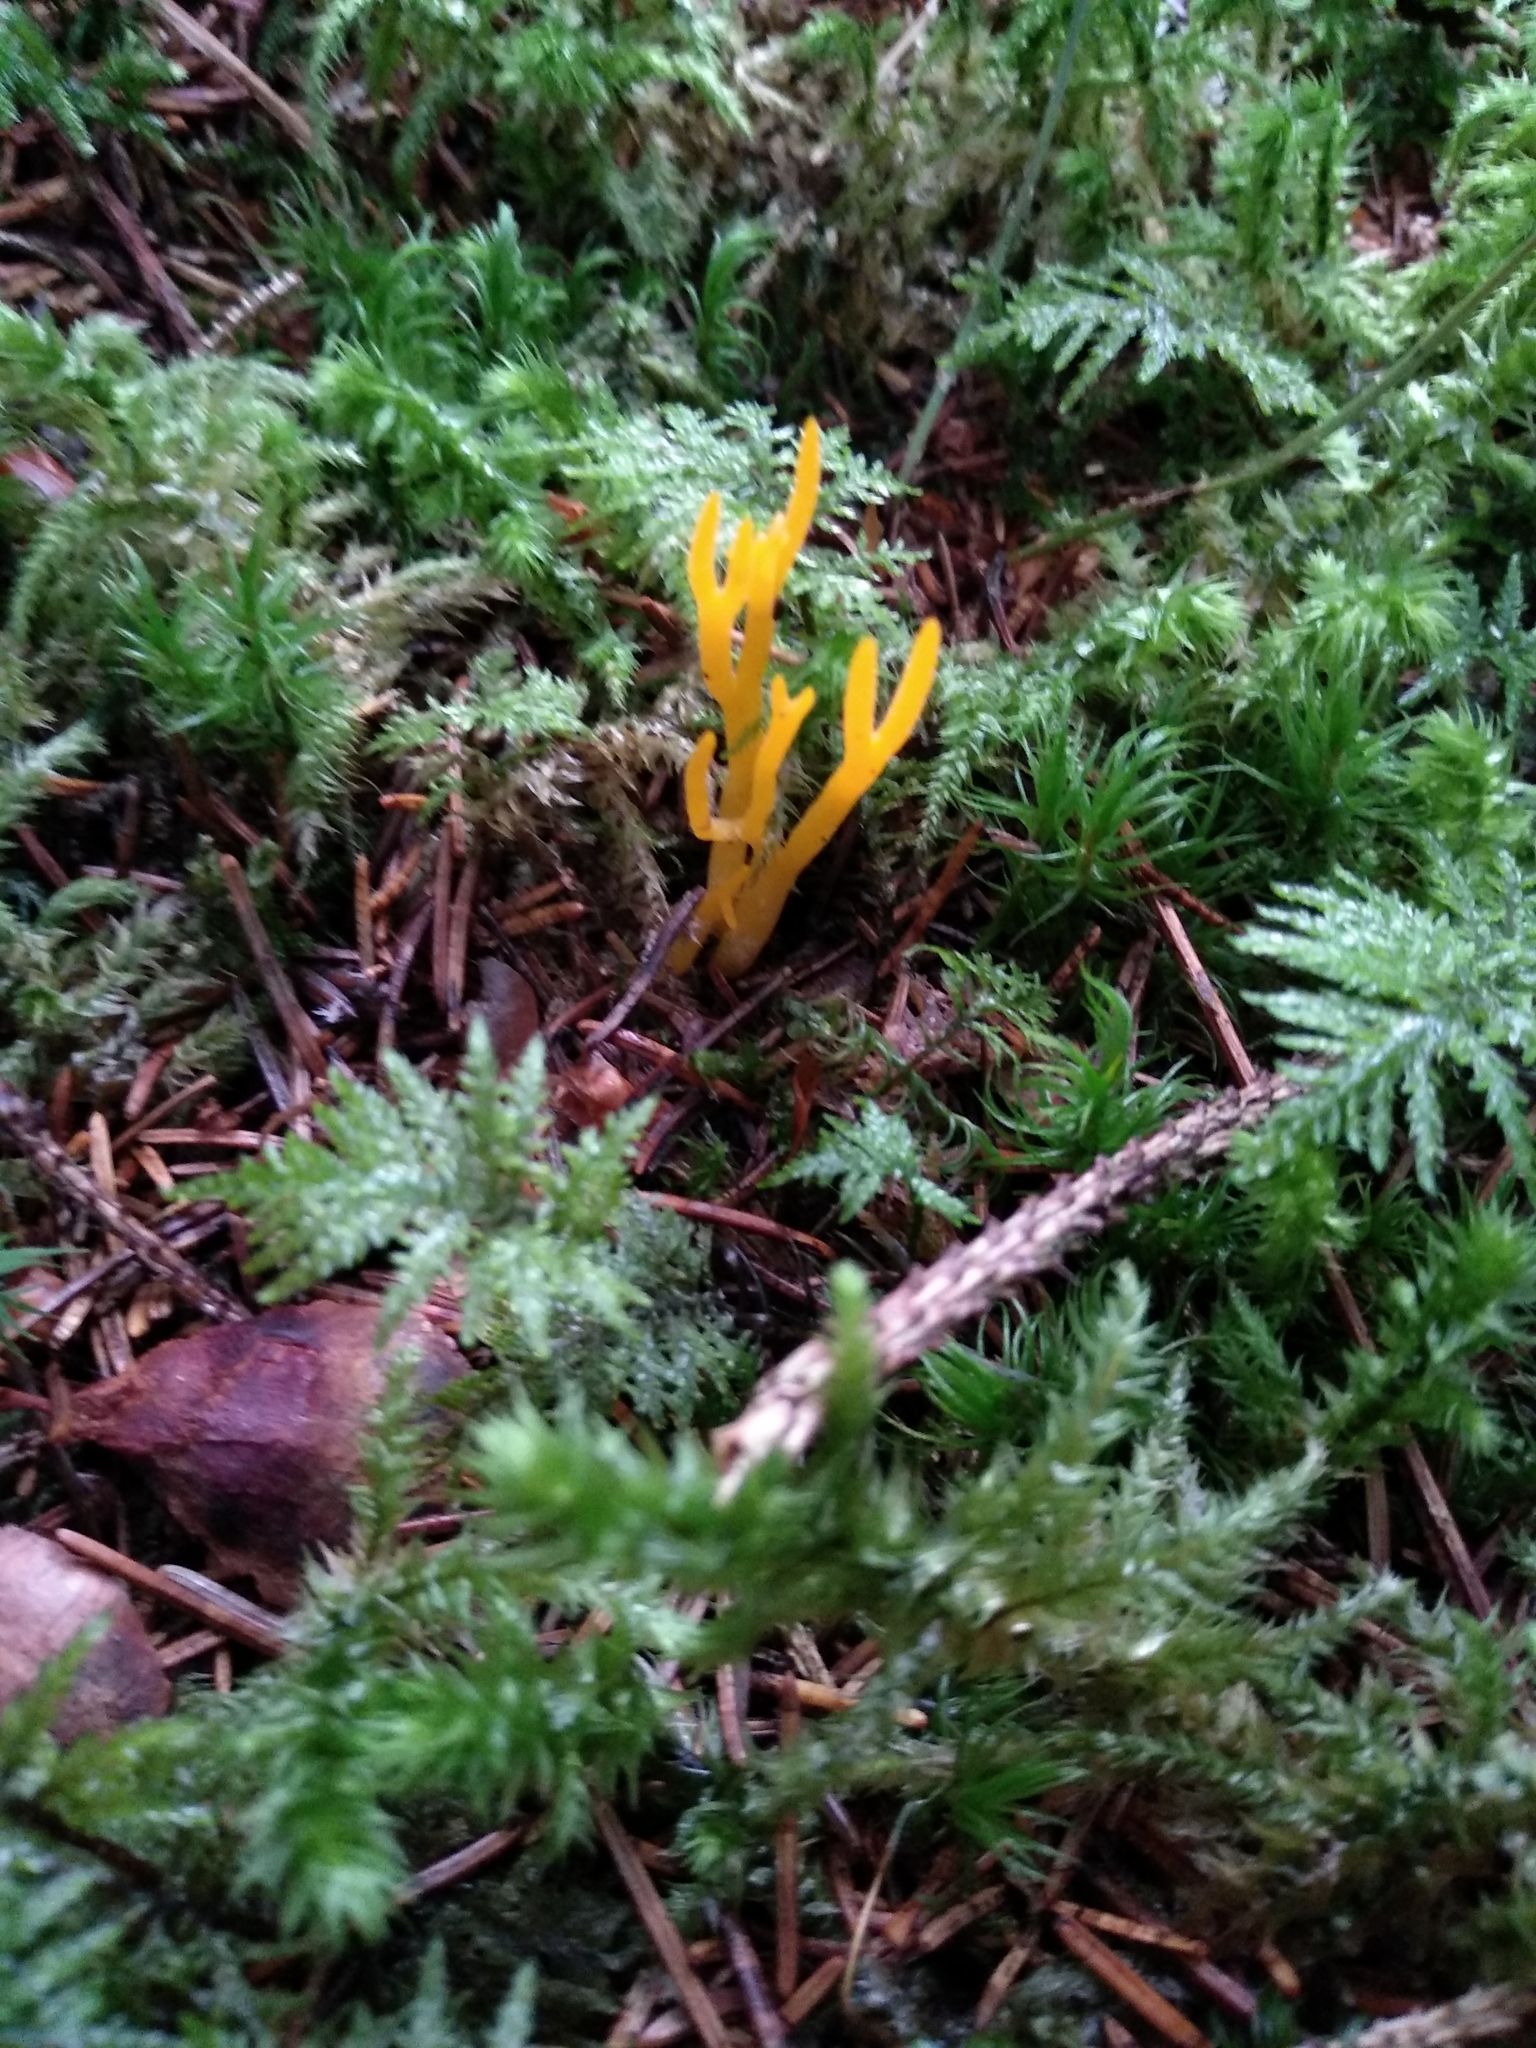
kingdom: Fungi
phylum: Basidiomycota
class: Dacrymycetes
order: Dacrymycetales
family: Dacrymycetaceae
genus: Calocera
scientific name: Calocera viscosa
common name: Yellow stagshorn
